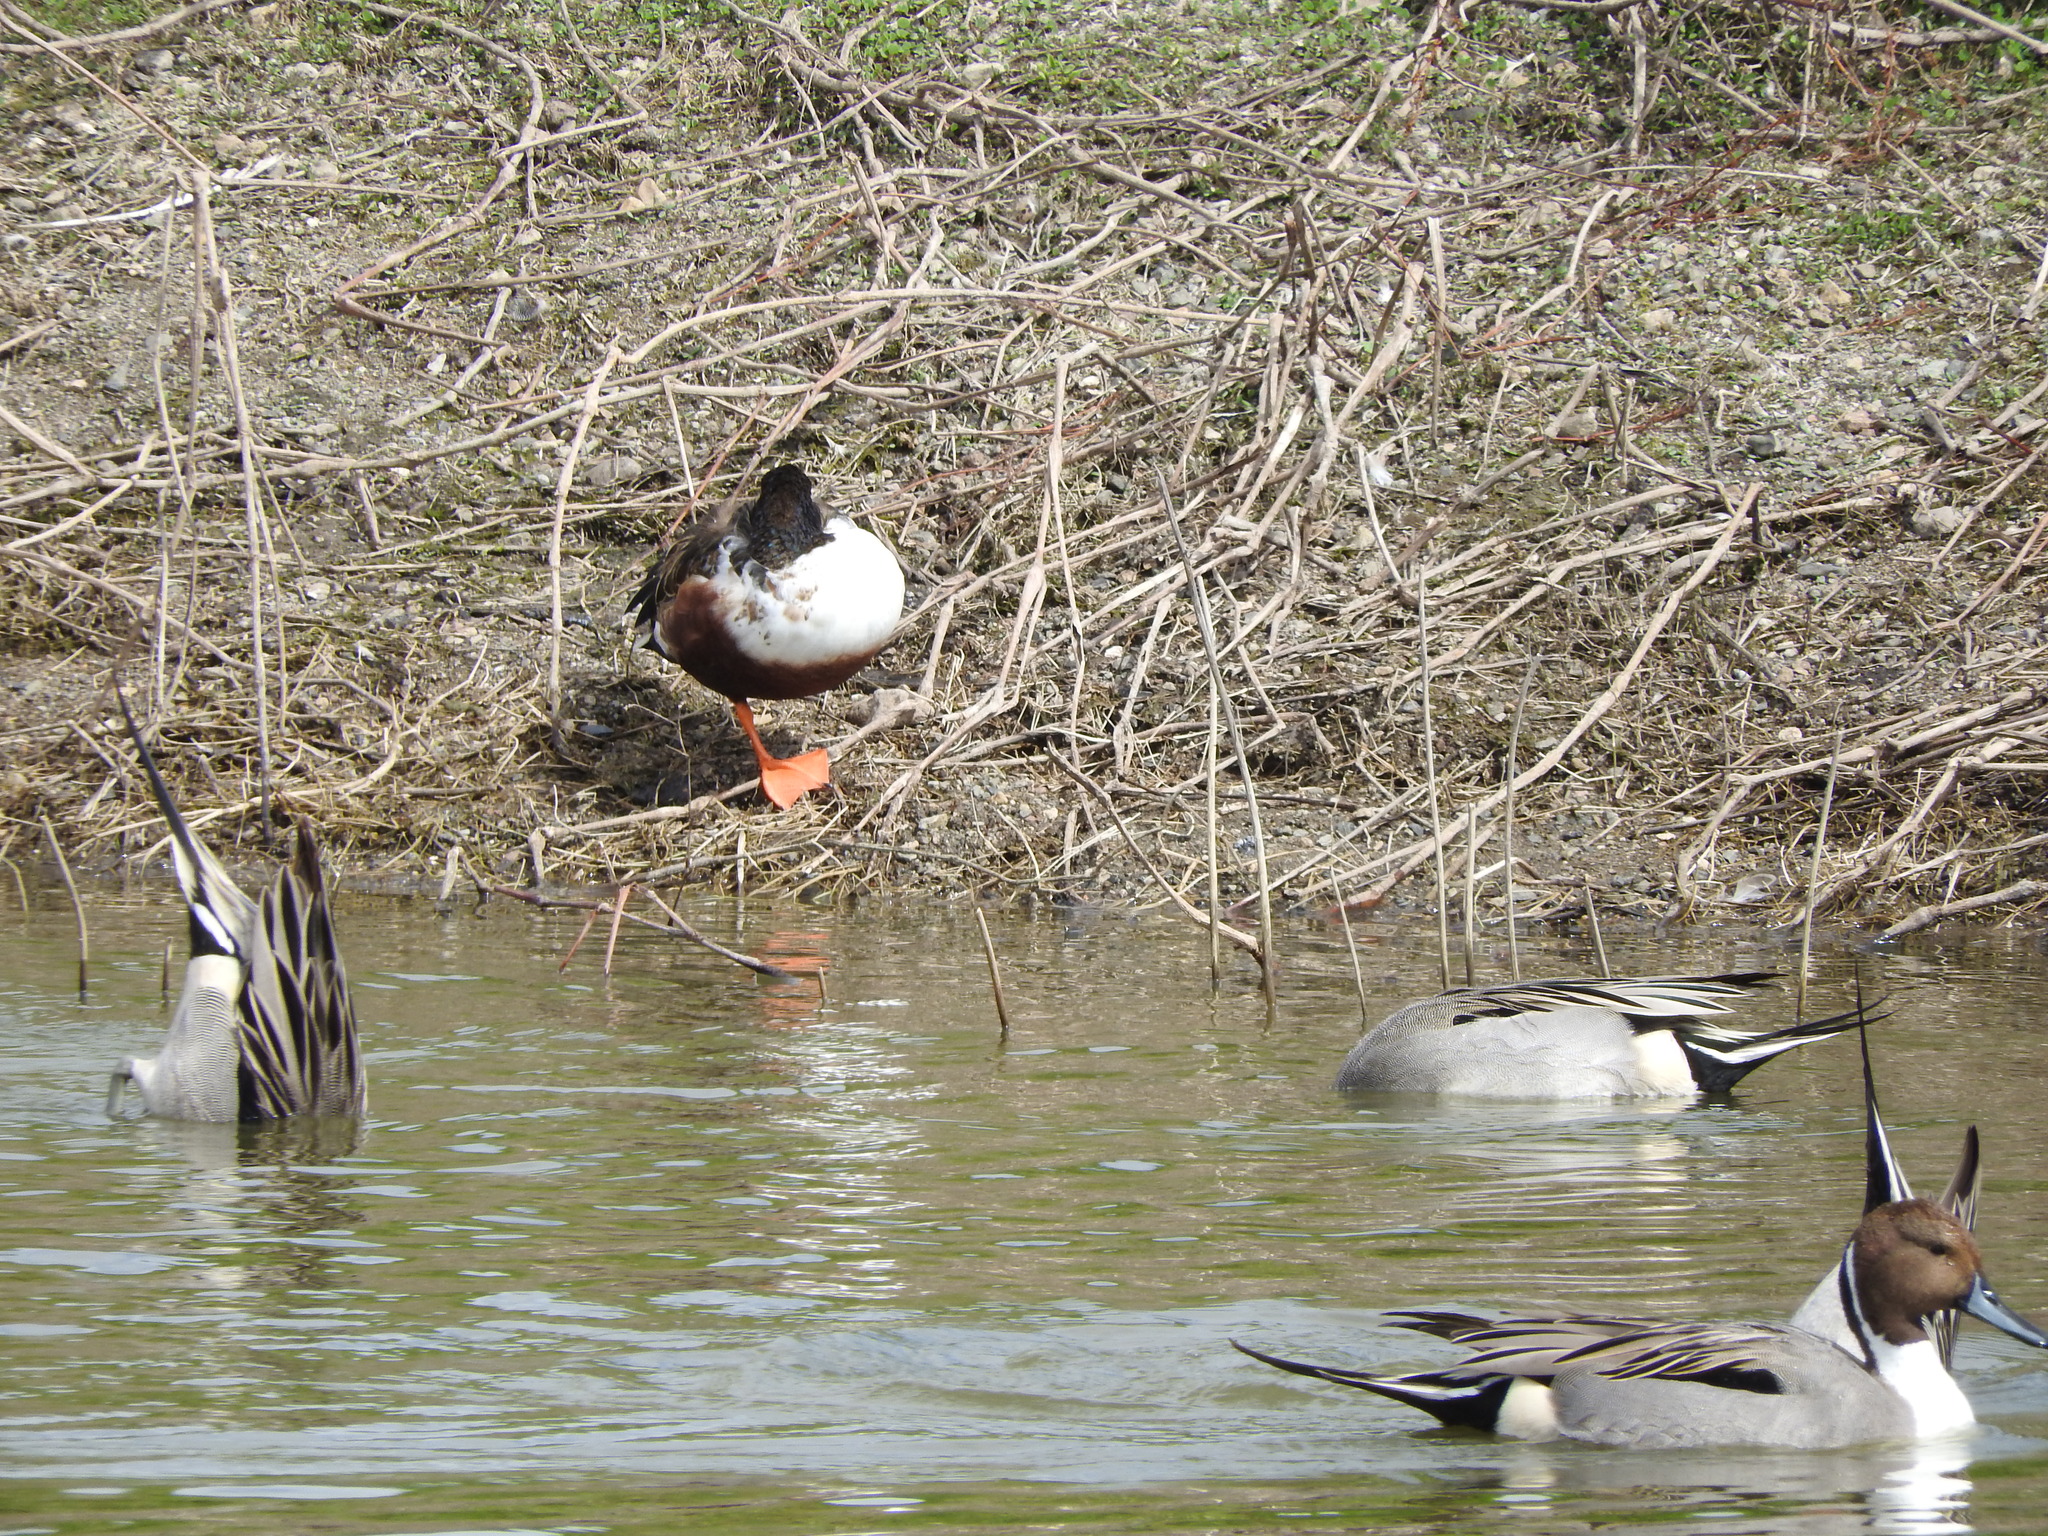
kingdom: Animalia
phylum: Chordata
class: Aves
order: Anseriformes
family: Anatidae
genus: Spatula
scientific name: Spatula clypeata
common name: Northern shoveler
